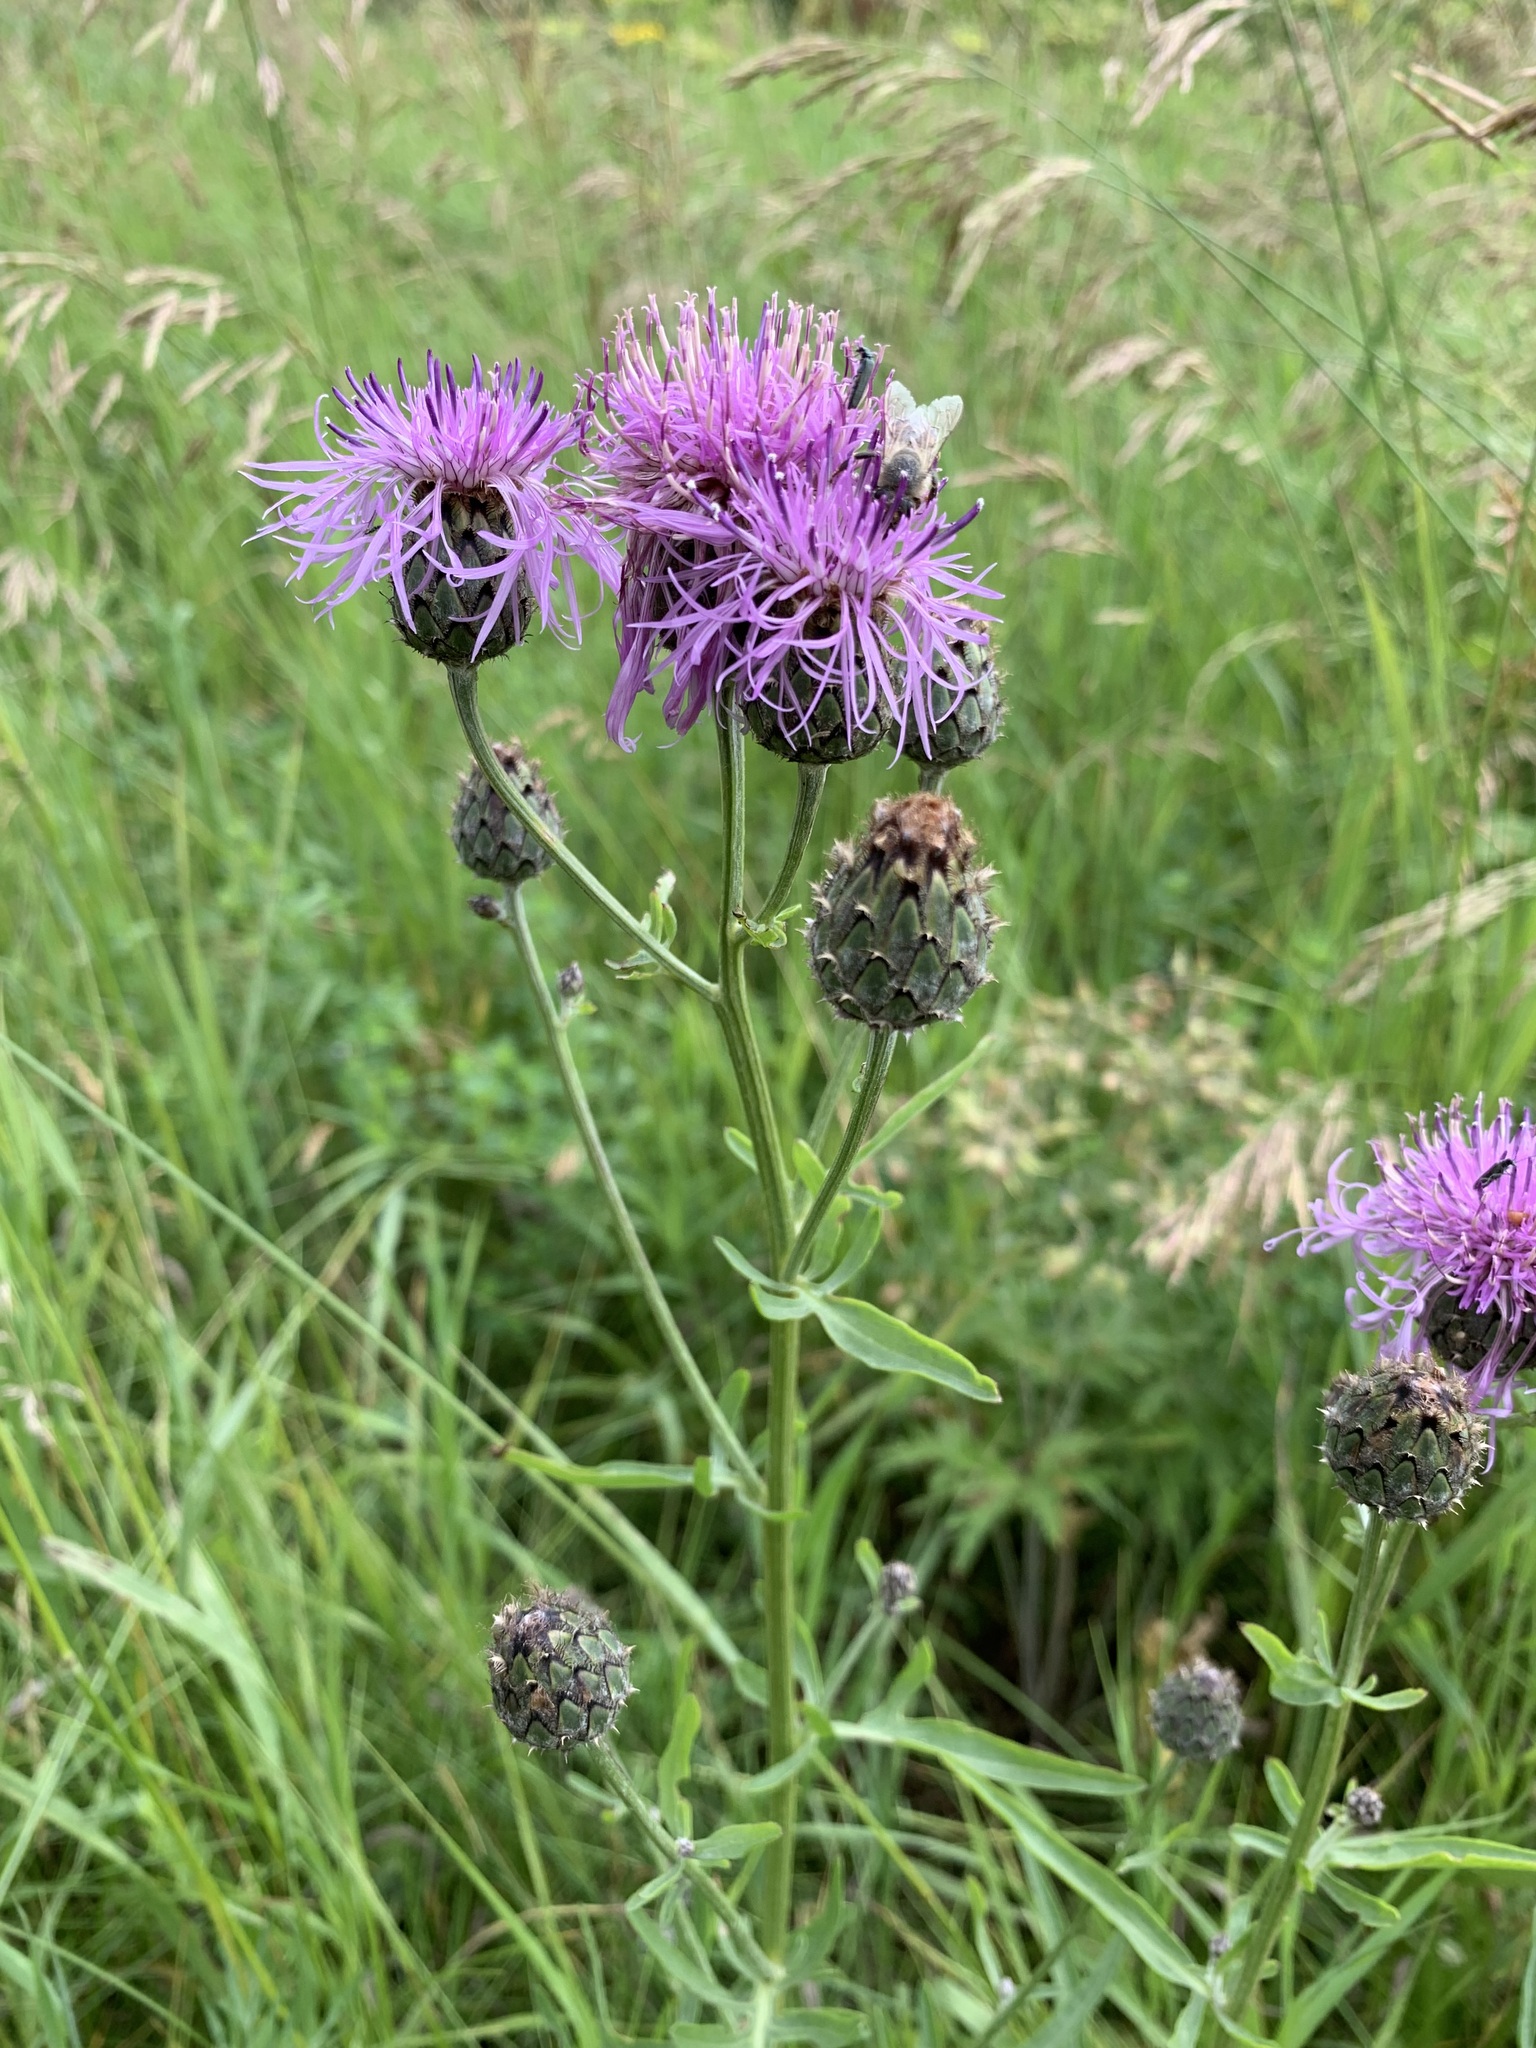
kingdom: Plantae
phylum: Tracheophyta
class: Magnoliopsida
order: Asterales
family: Asteraceae
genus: Centaurea
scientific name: Centaurea scabiosa
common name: Greater knapweed
